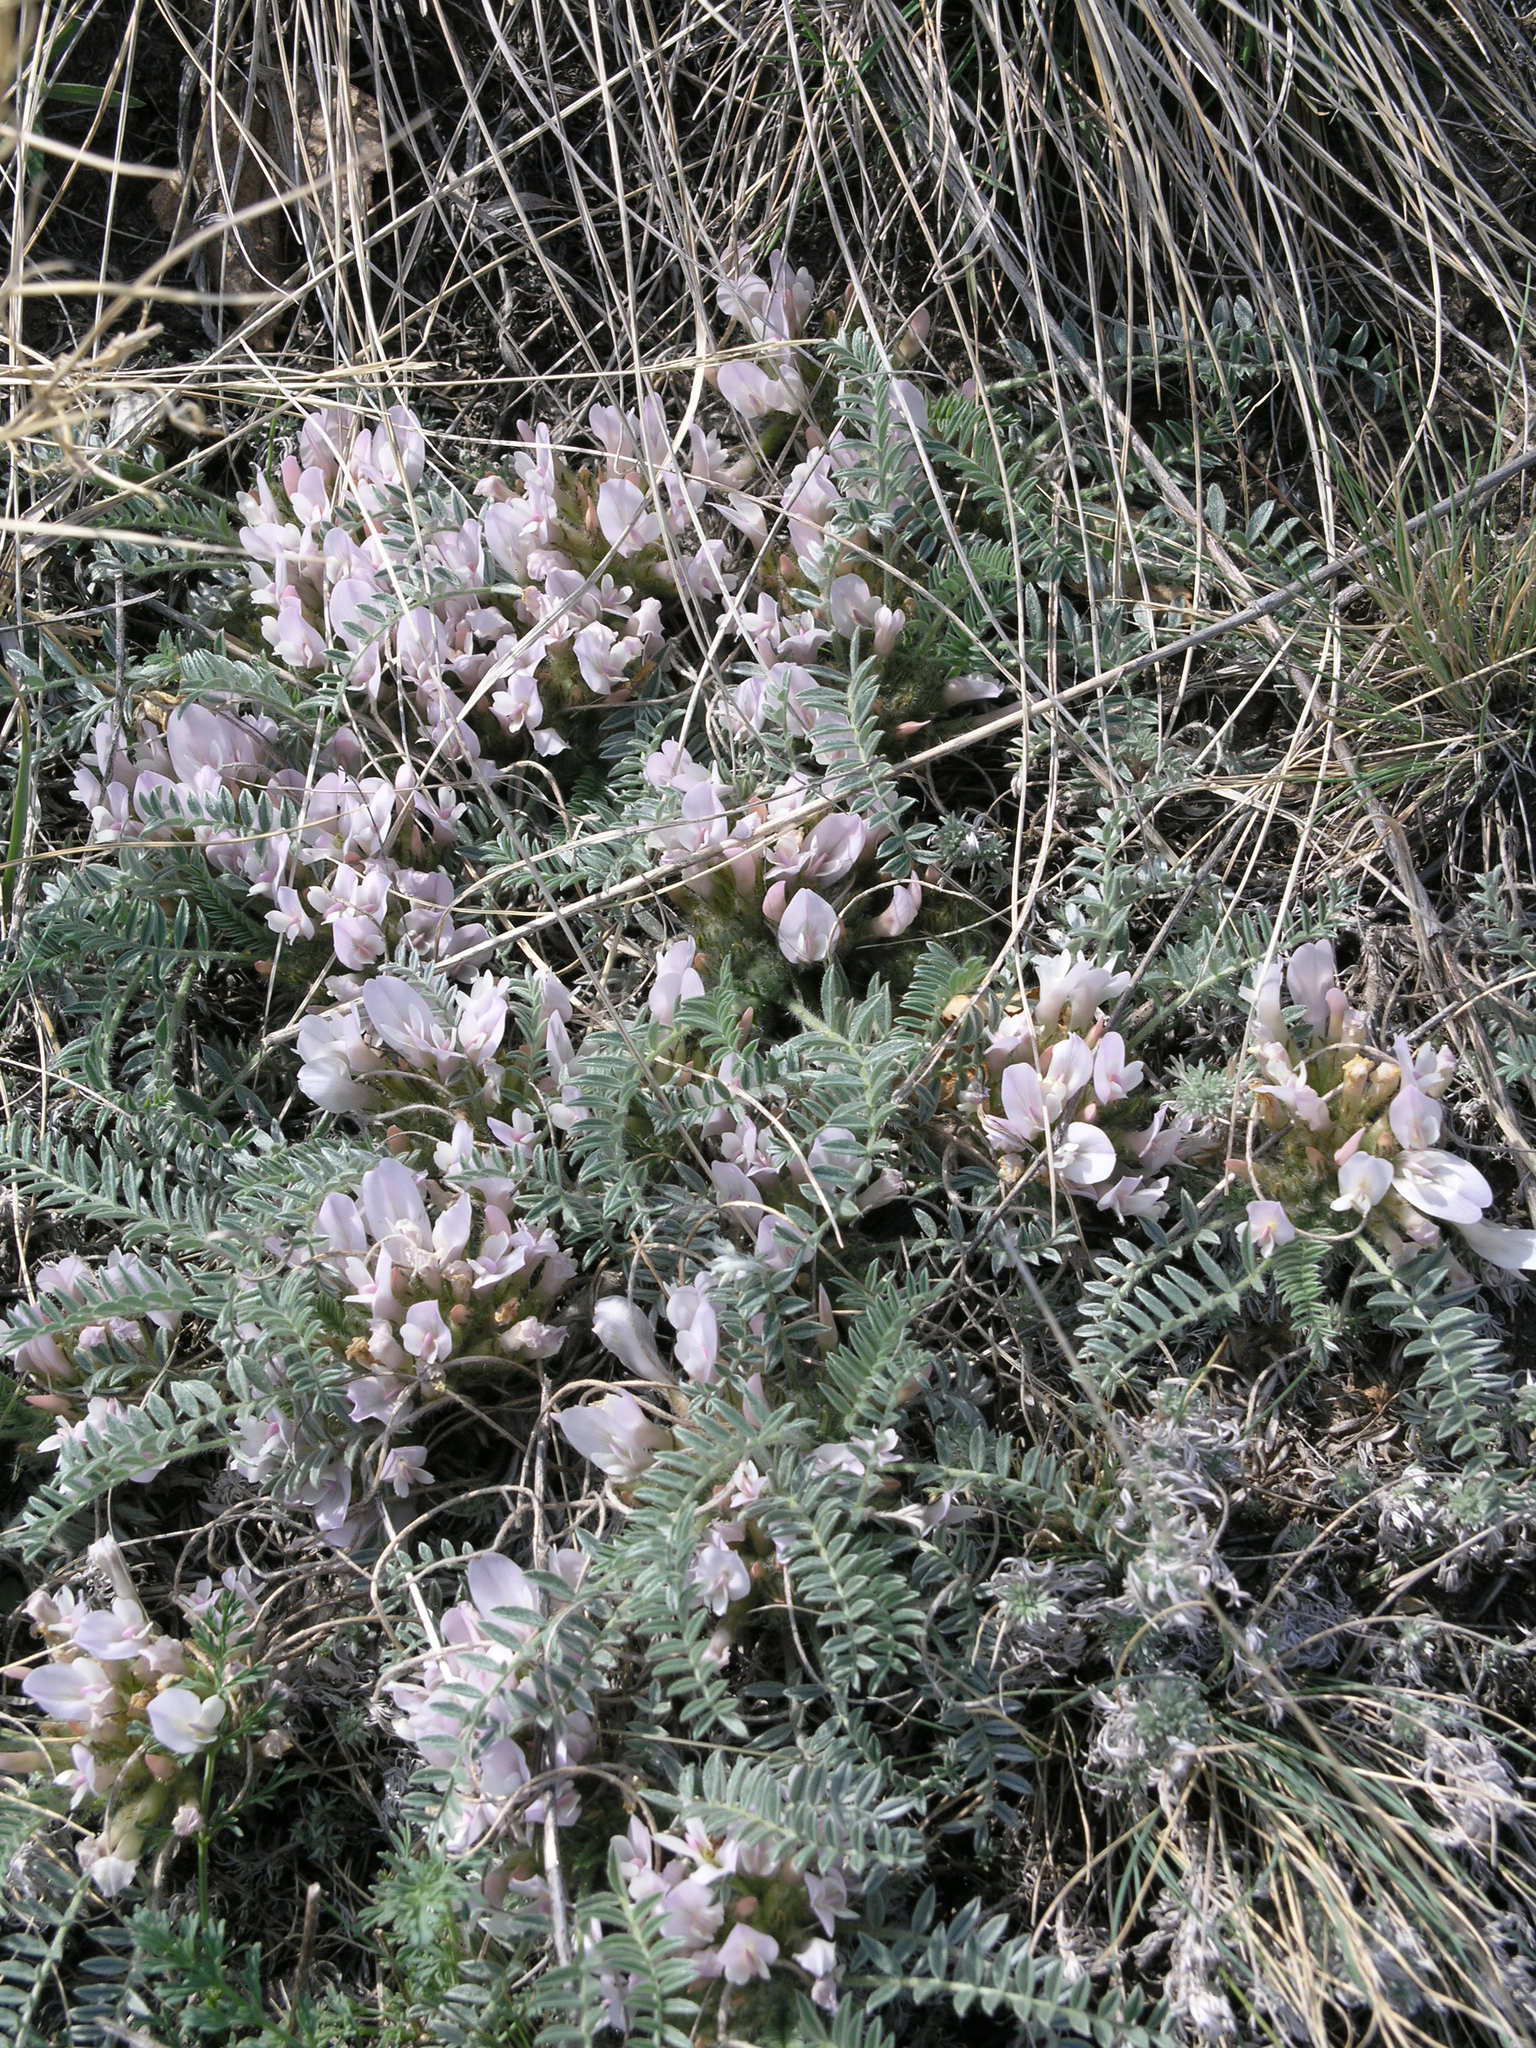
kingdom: Plantae
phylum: Tracheophyta
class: Magnoliopsida
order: Fabales
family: Fabaceae
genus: Astragalus
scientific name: Astragalus testiculatus
